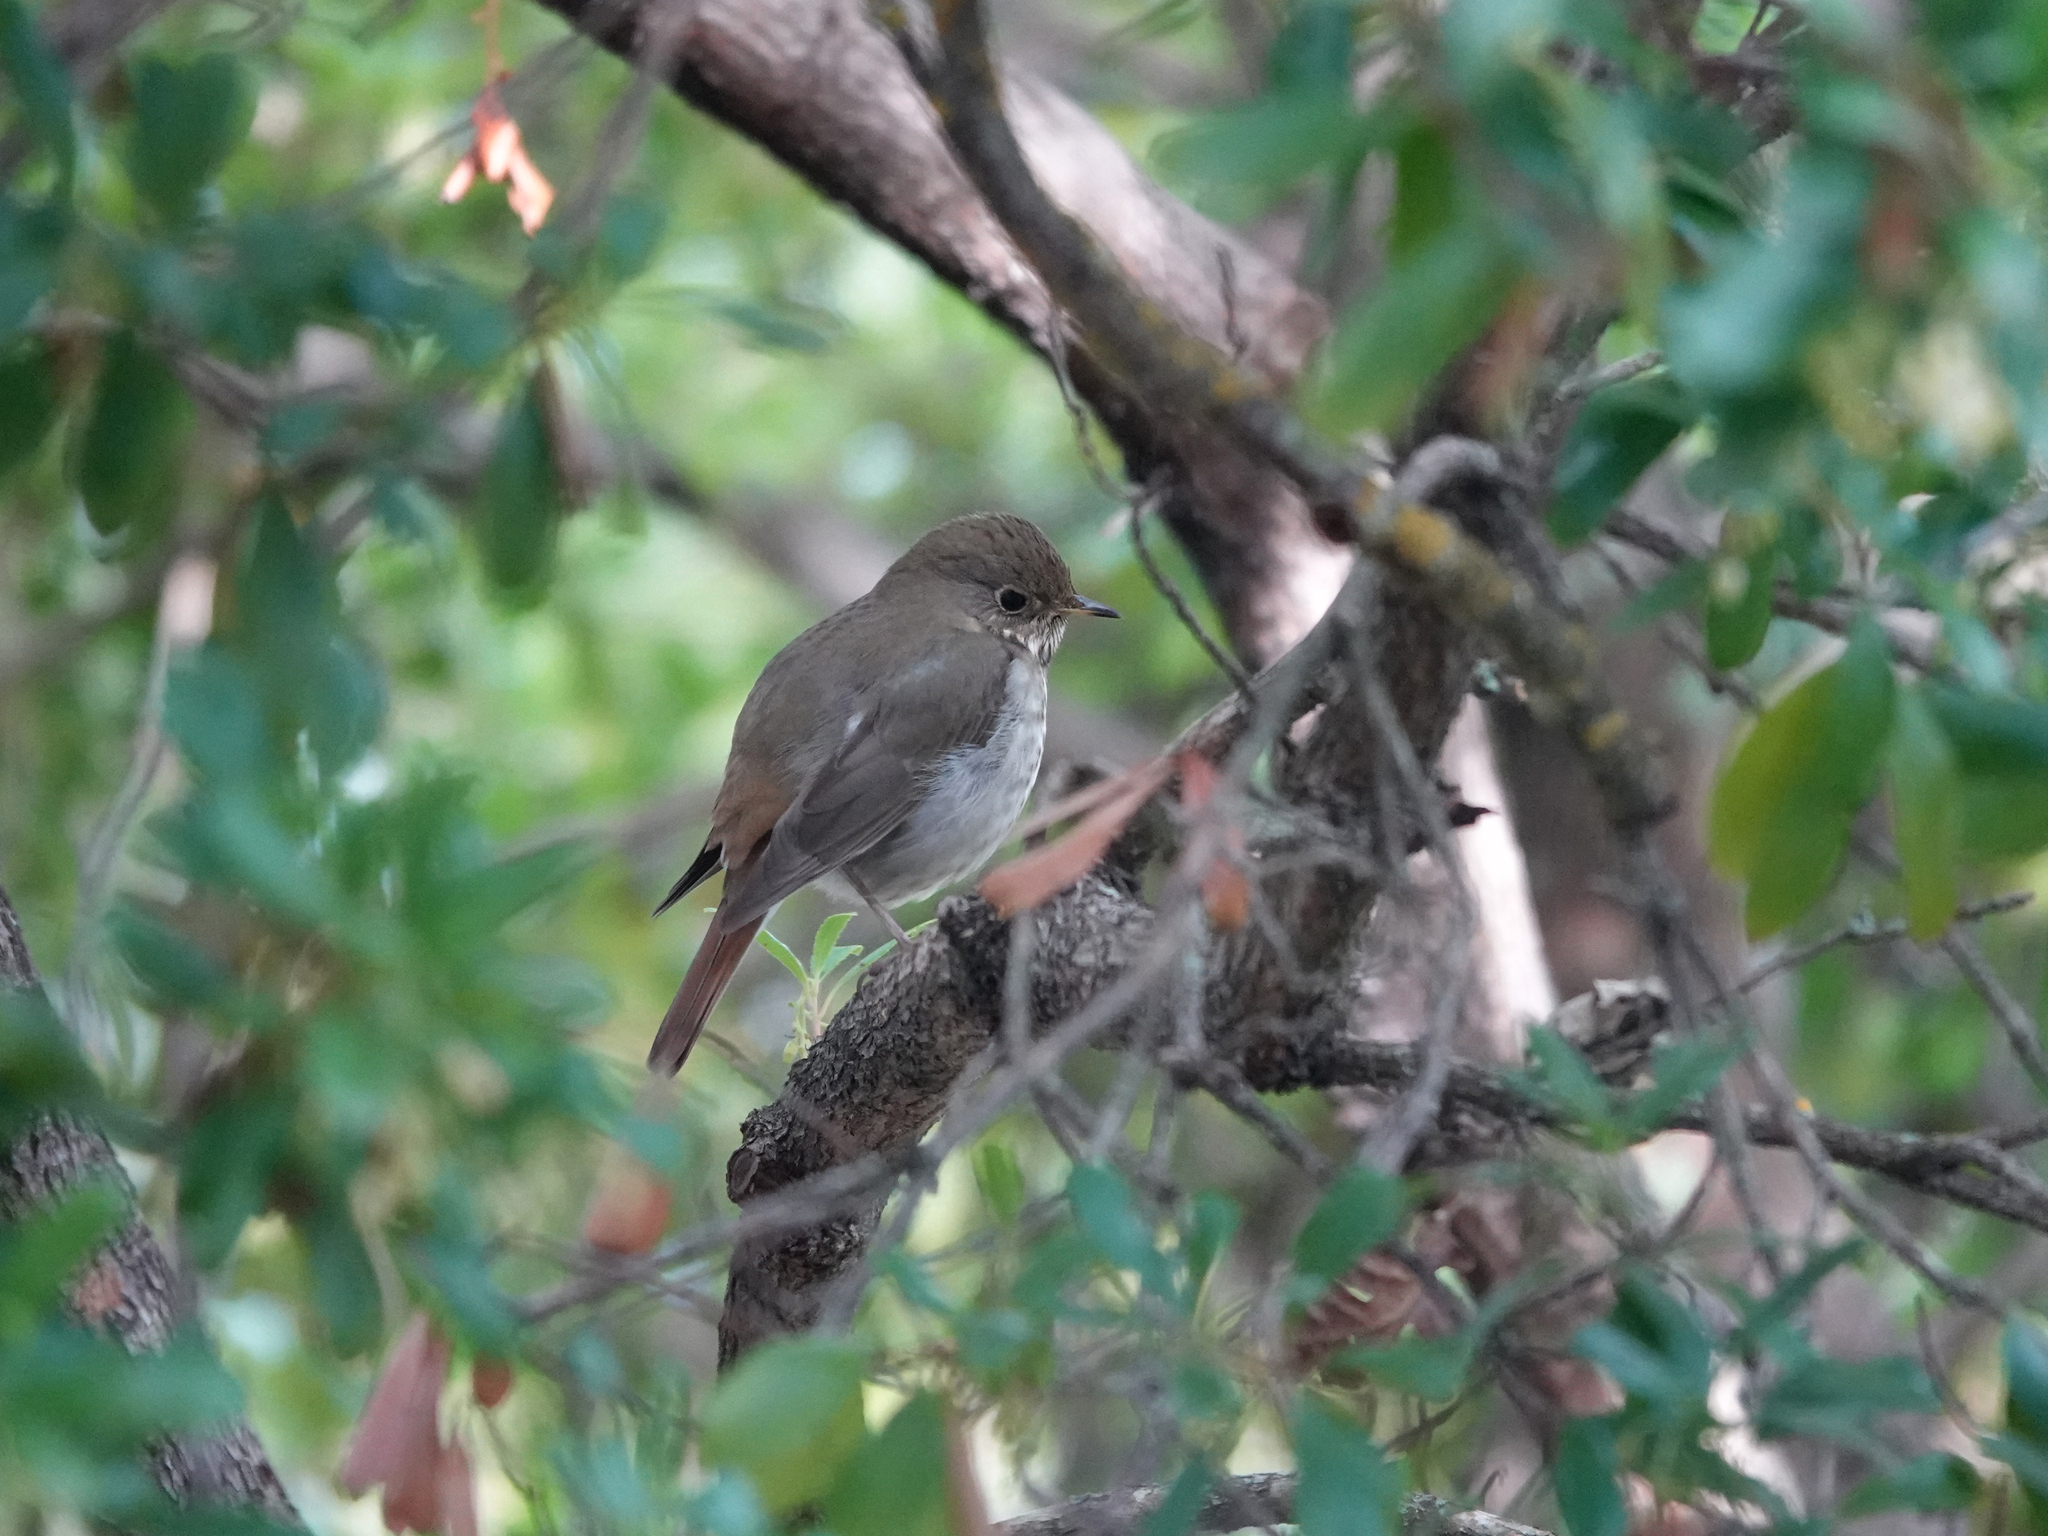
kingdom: Animalia
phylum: Chordata
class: Aves
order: Passeriformes
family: Turdidae
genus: Catharus
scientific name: Catharus guttatus
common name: Hermit thrush
